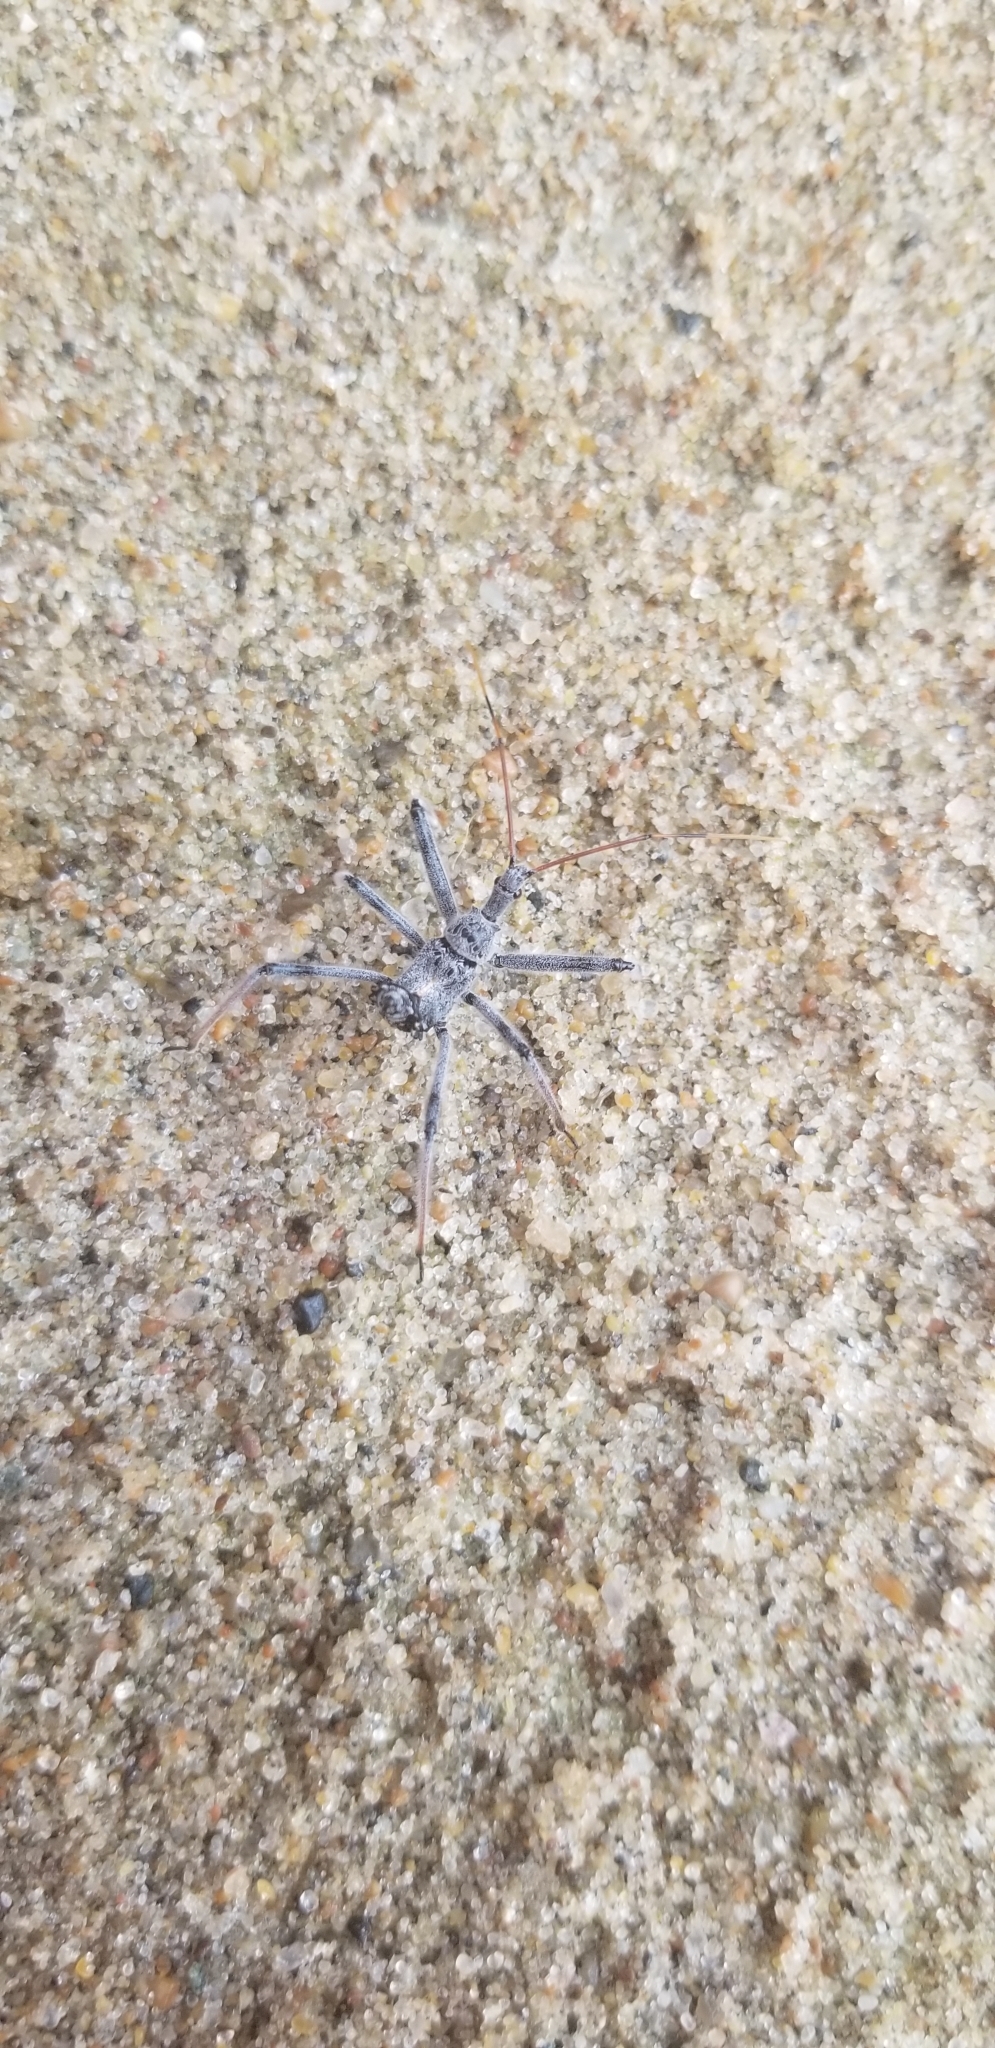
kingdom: Animalia
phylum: Arthropoda
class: Insecta
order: Hemiptera
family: Reduviidae
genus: Arilus
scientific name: Arilus cristatus
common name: North american wheel bug
